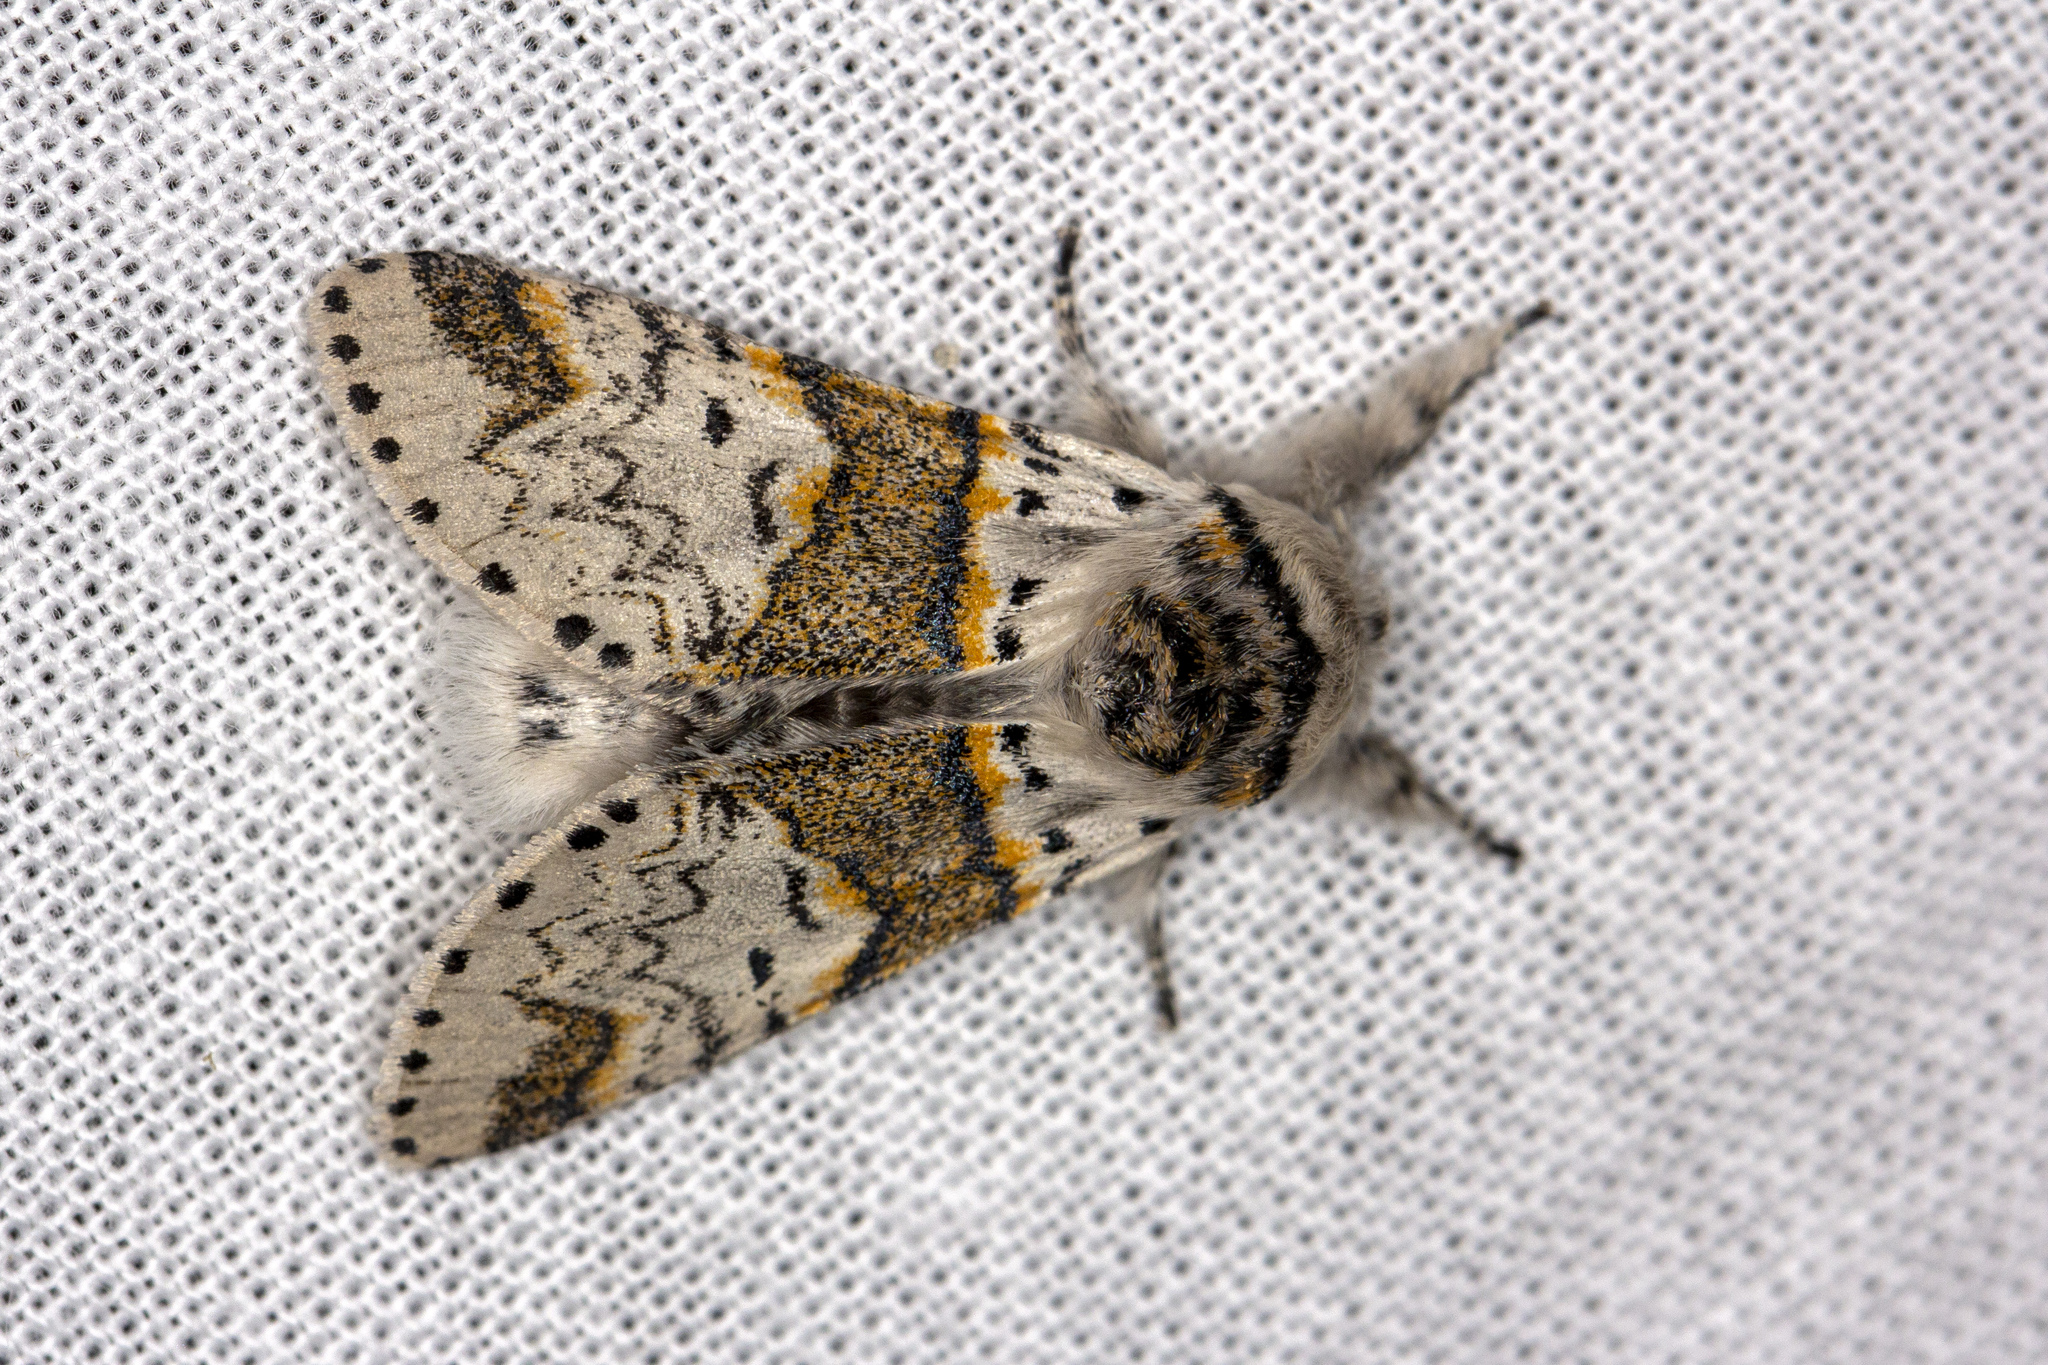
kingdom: Animalia
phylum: Arthropoda
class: Insecta
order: Lepidoptera
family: Notodontidae
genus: Furcula
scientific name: Furcula furcula
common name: Sallow kitten
